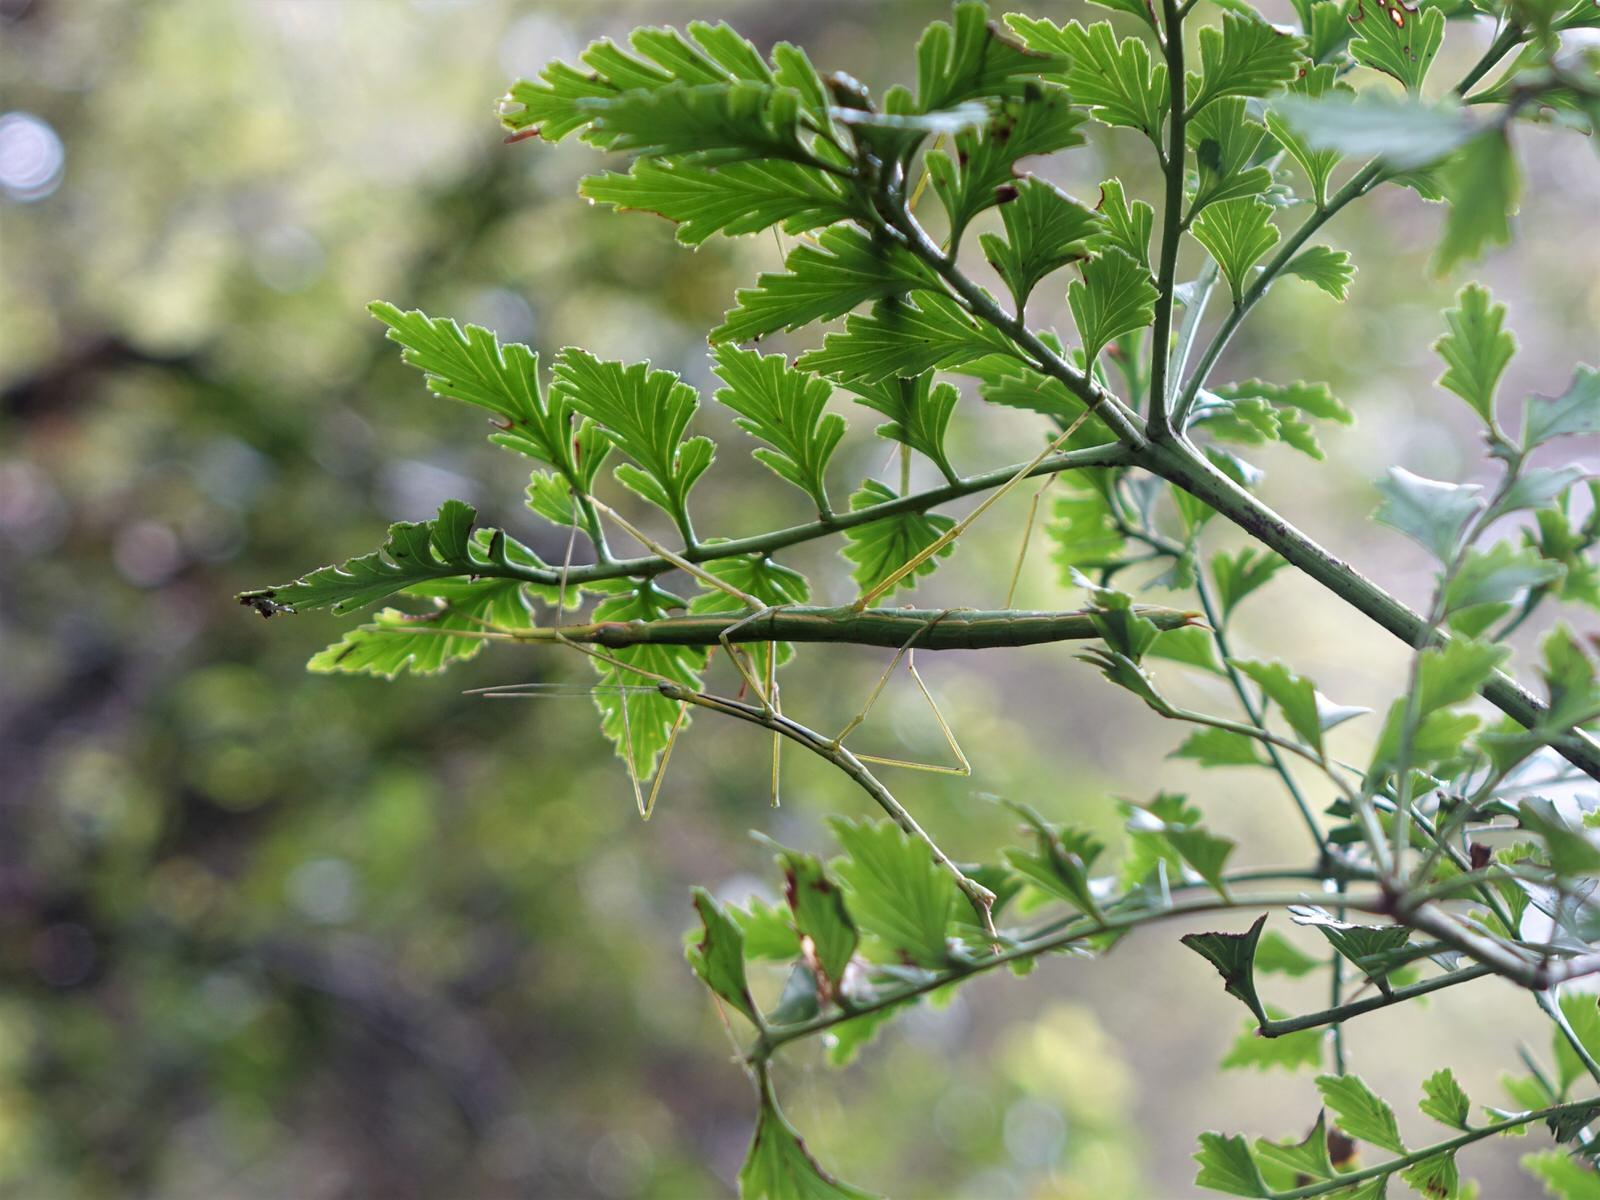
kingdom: Animalia
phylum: Arthropoda
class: Insecta
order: Phasmida
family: Phasmatidae
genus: Clitarchus
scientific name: Clitarchus hookeri
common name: Smooth stick insect
